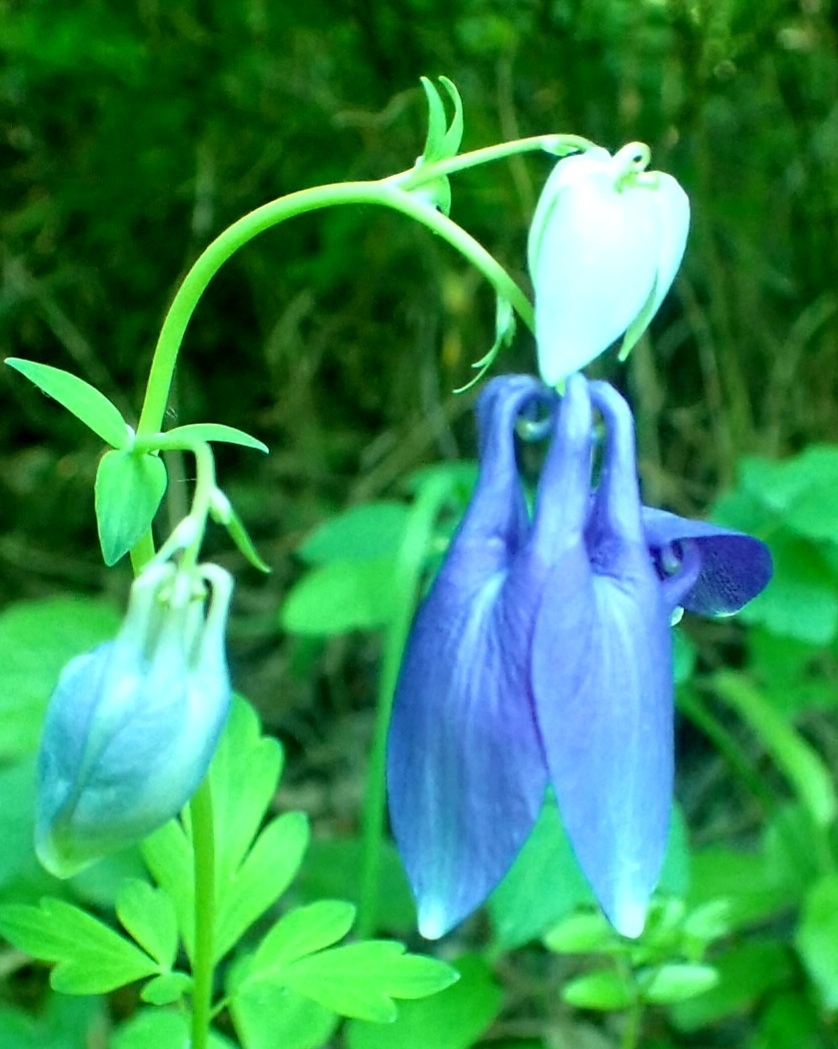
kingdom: Plantae
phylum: Tracheophyta
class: Magnoliopsida
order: Ranunculales
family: Ranunculaceae
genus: Aquilegia
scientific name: Aquilegia vulgaris
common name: Columbine
